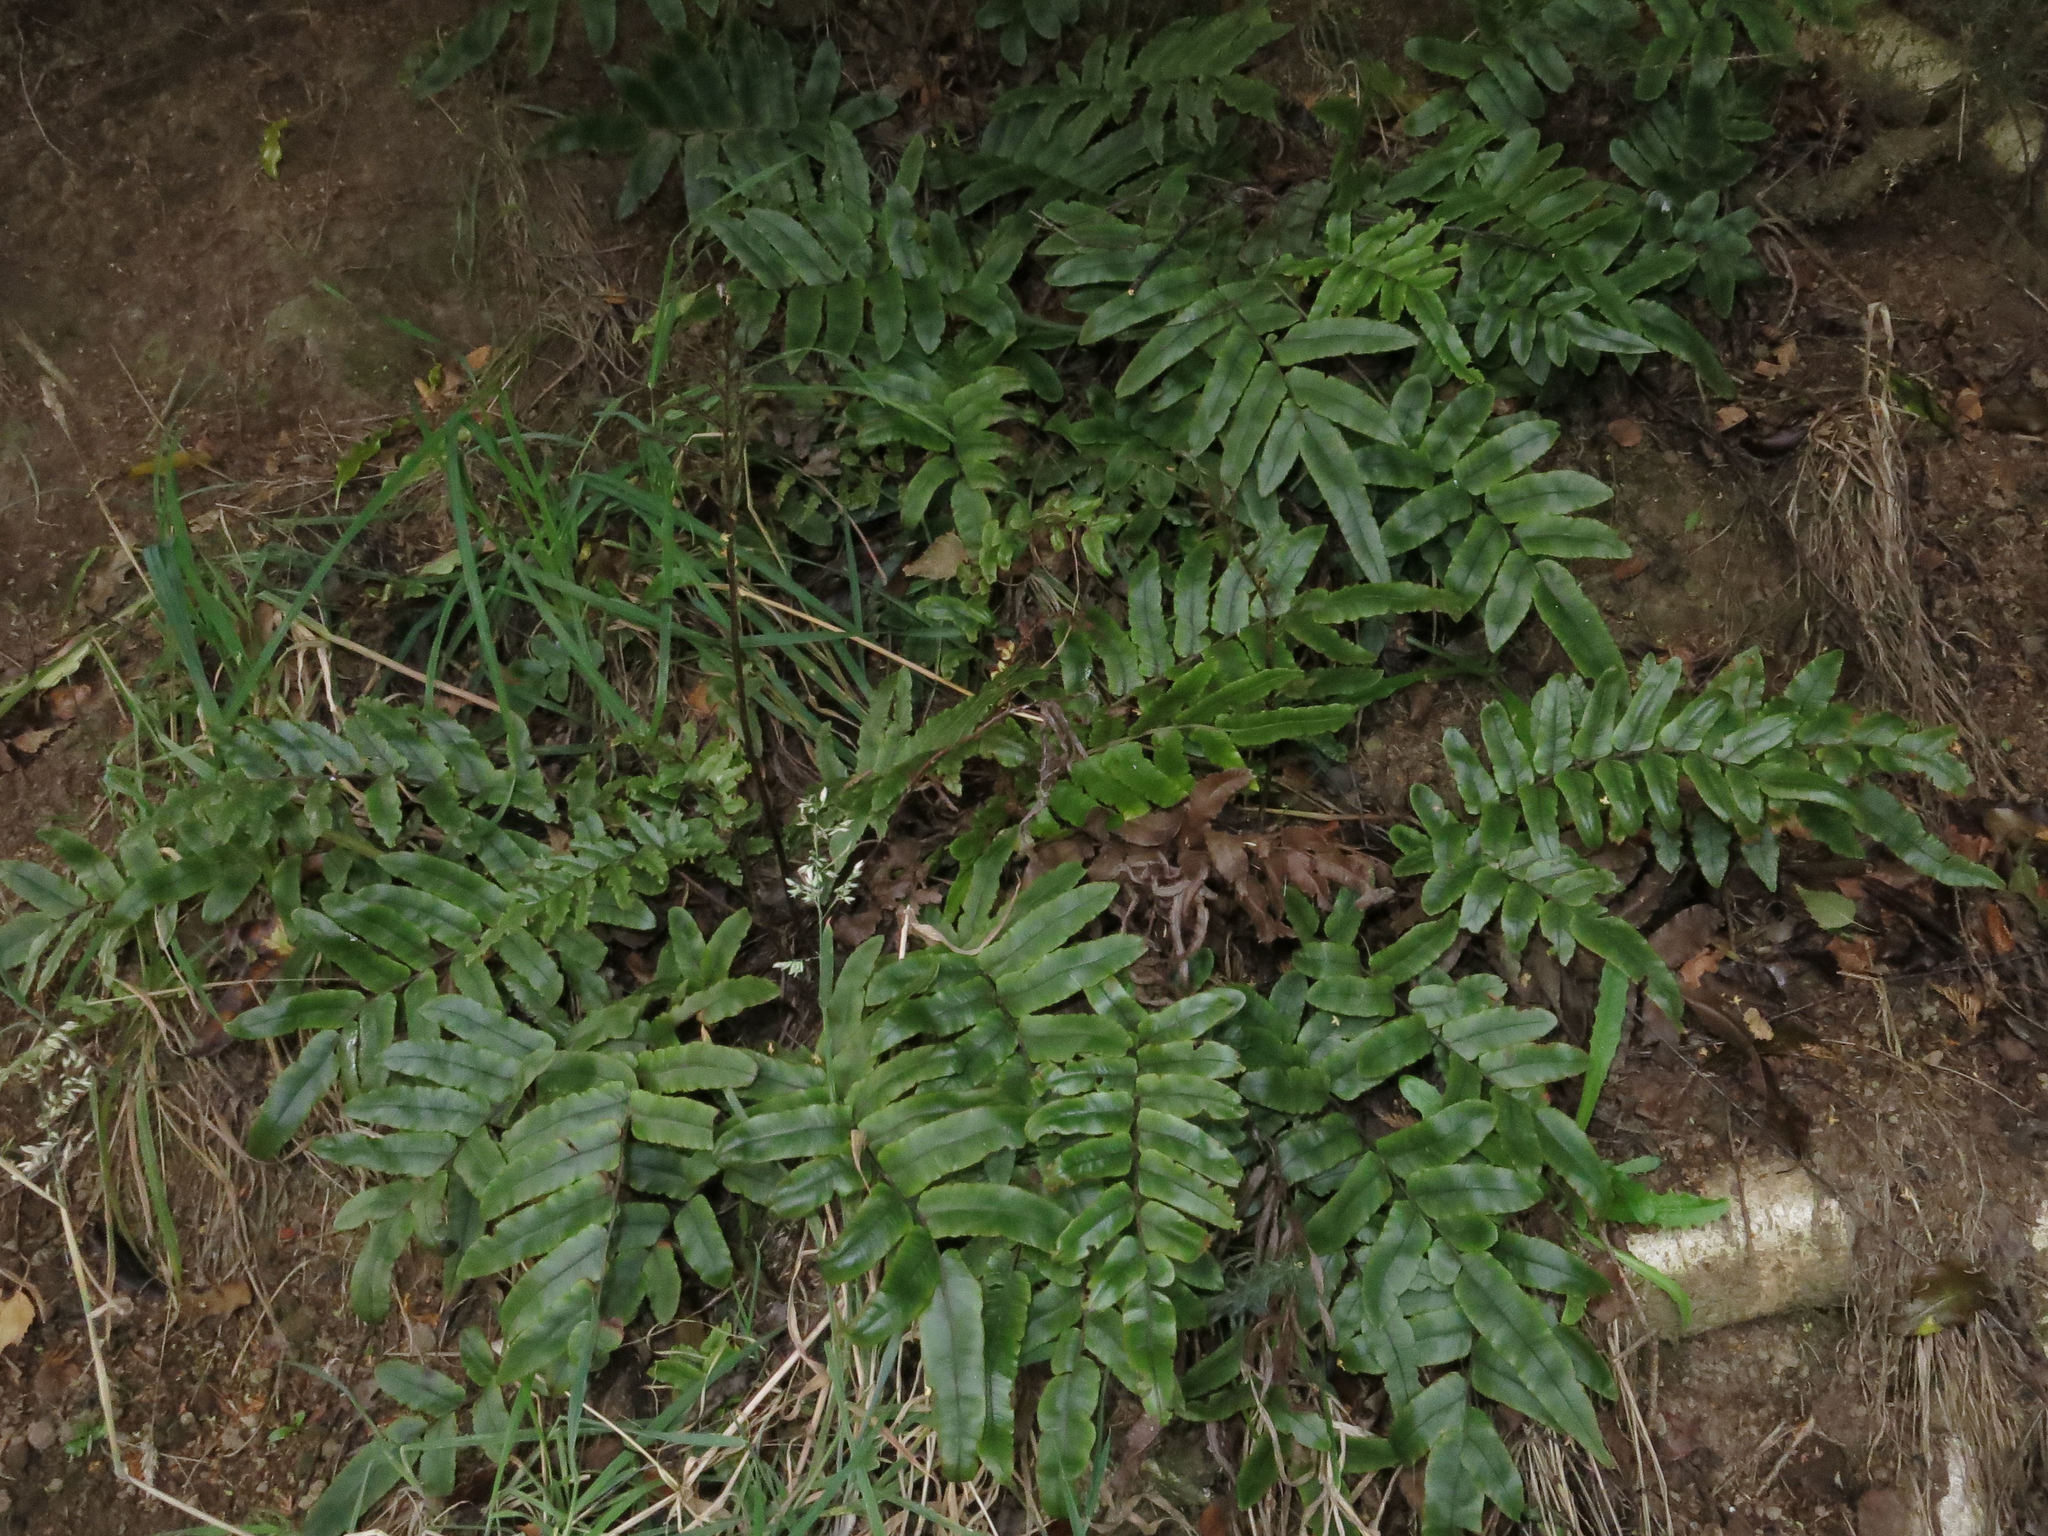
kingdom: Plantae
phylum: Tracheophyta
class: Polypodiopsida
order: Polypodiales
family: Blechnaceae
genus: Parablechnum
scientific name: Parablechnum procerum
